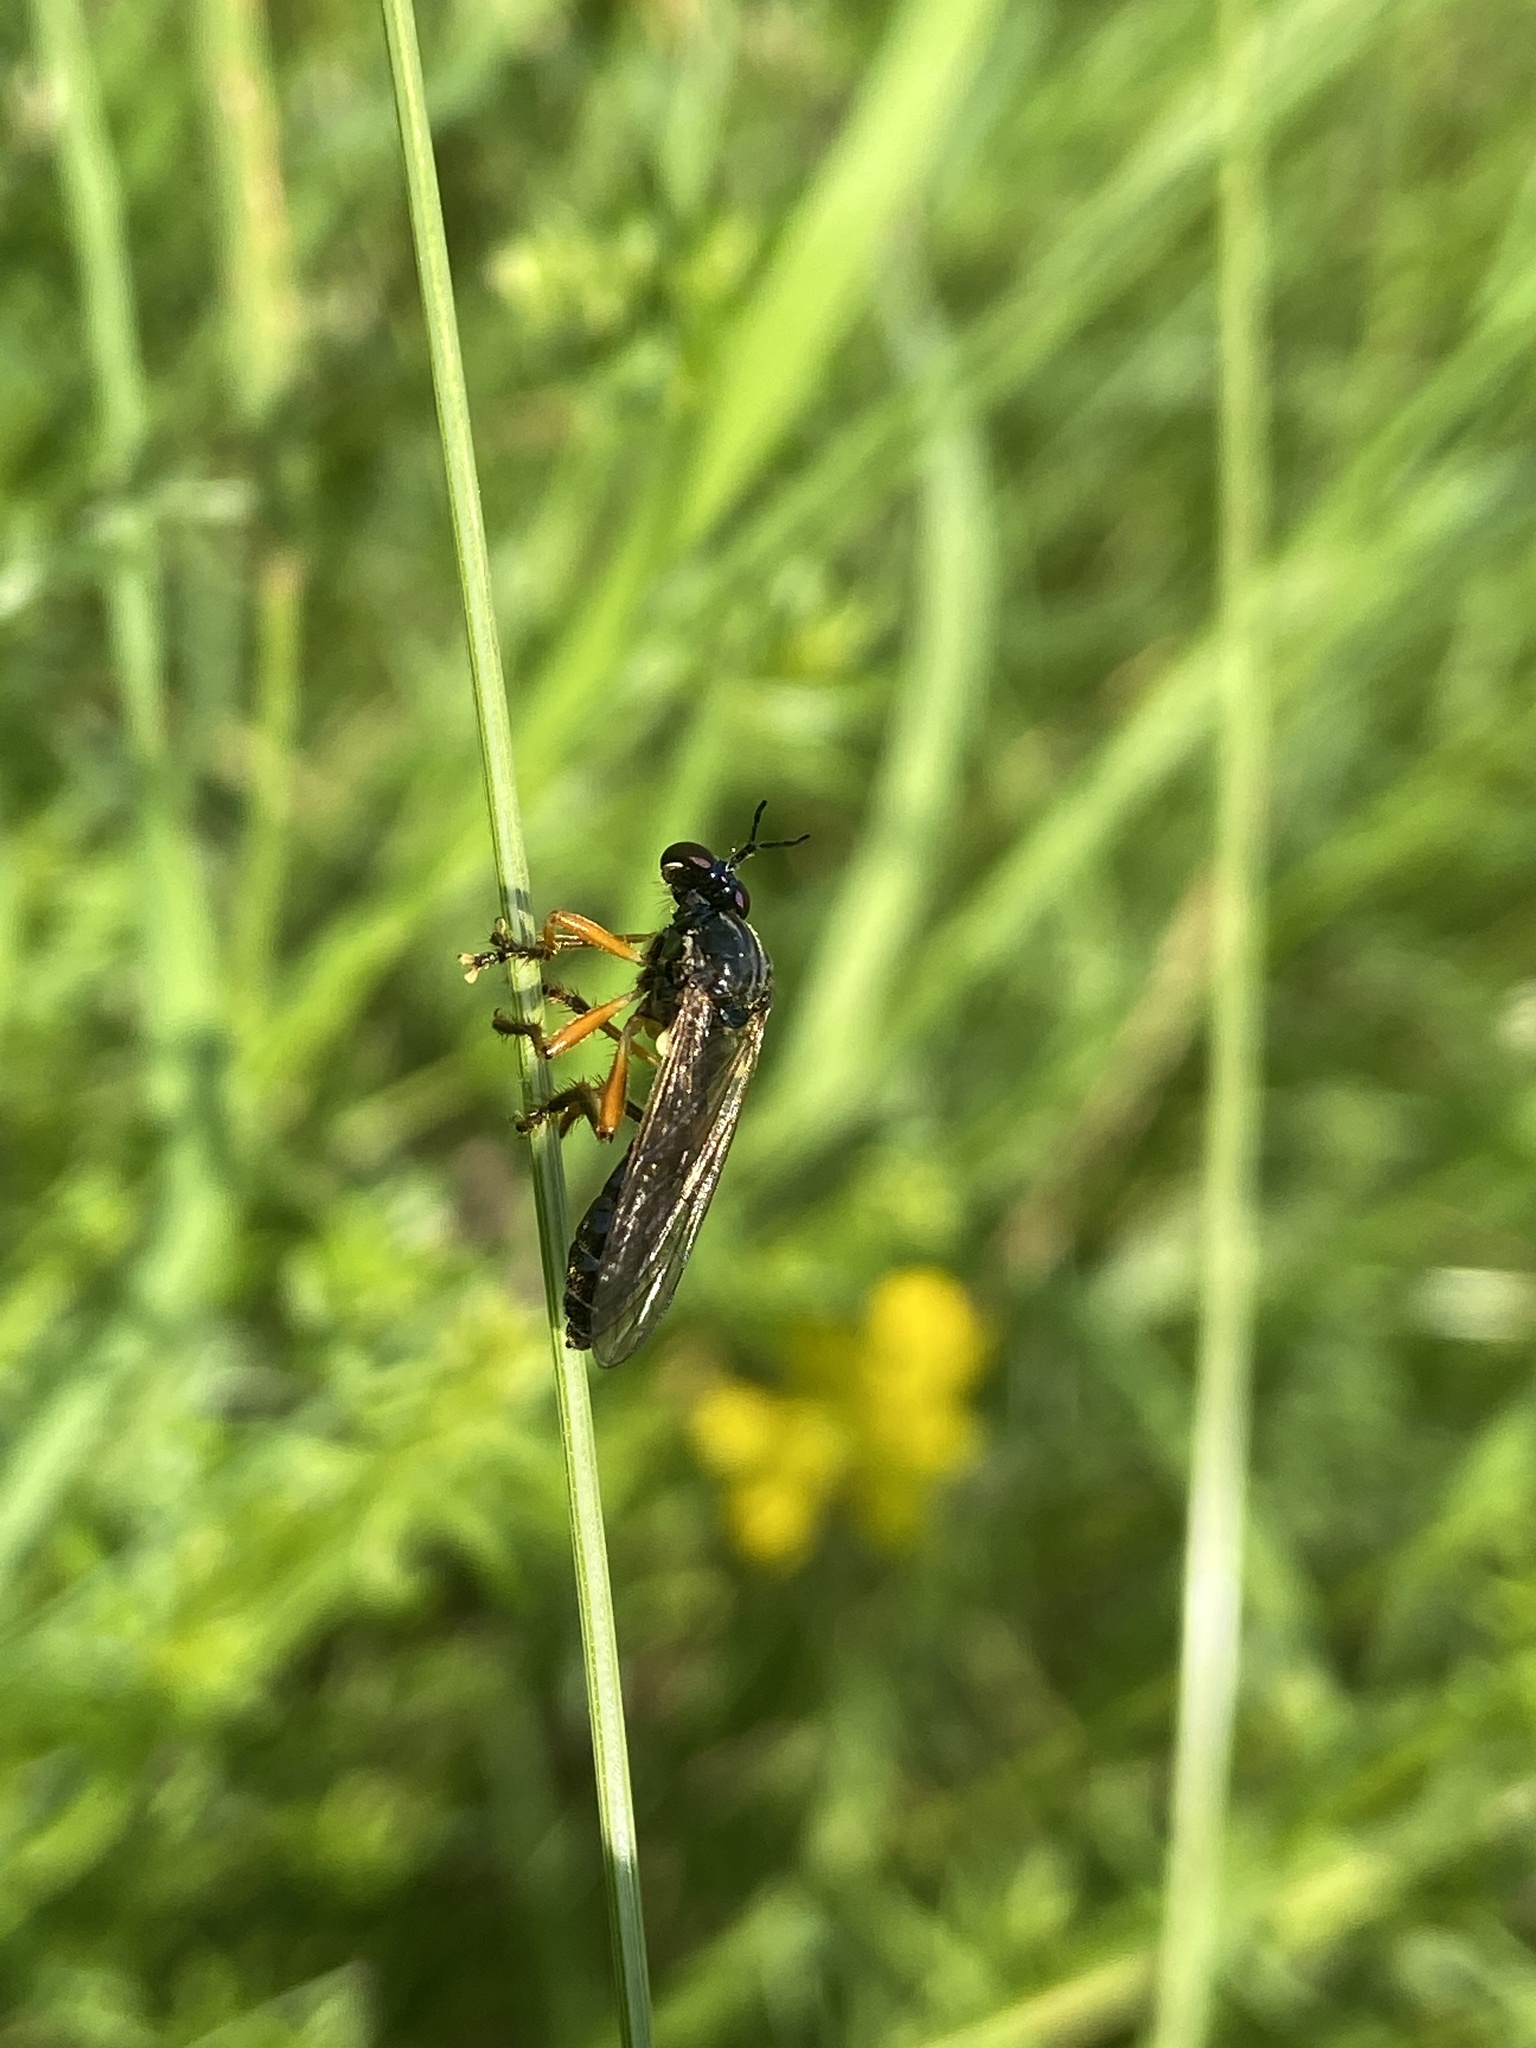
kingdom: Animalia
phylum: Arthropoda
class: Insecta
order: Diptera
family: Asilidae
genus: Dioctria
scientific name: Dioctria cothurnata
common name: Scarce red-legged robberfly
